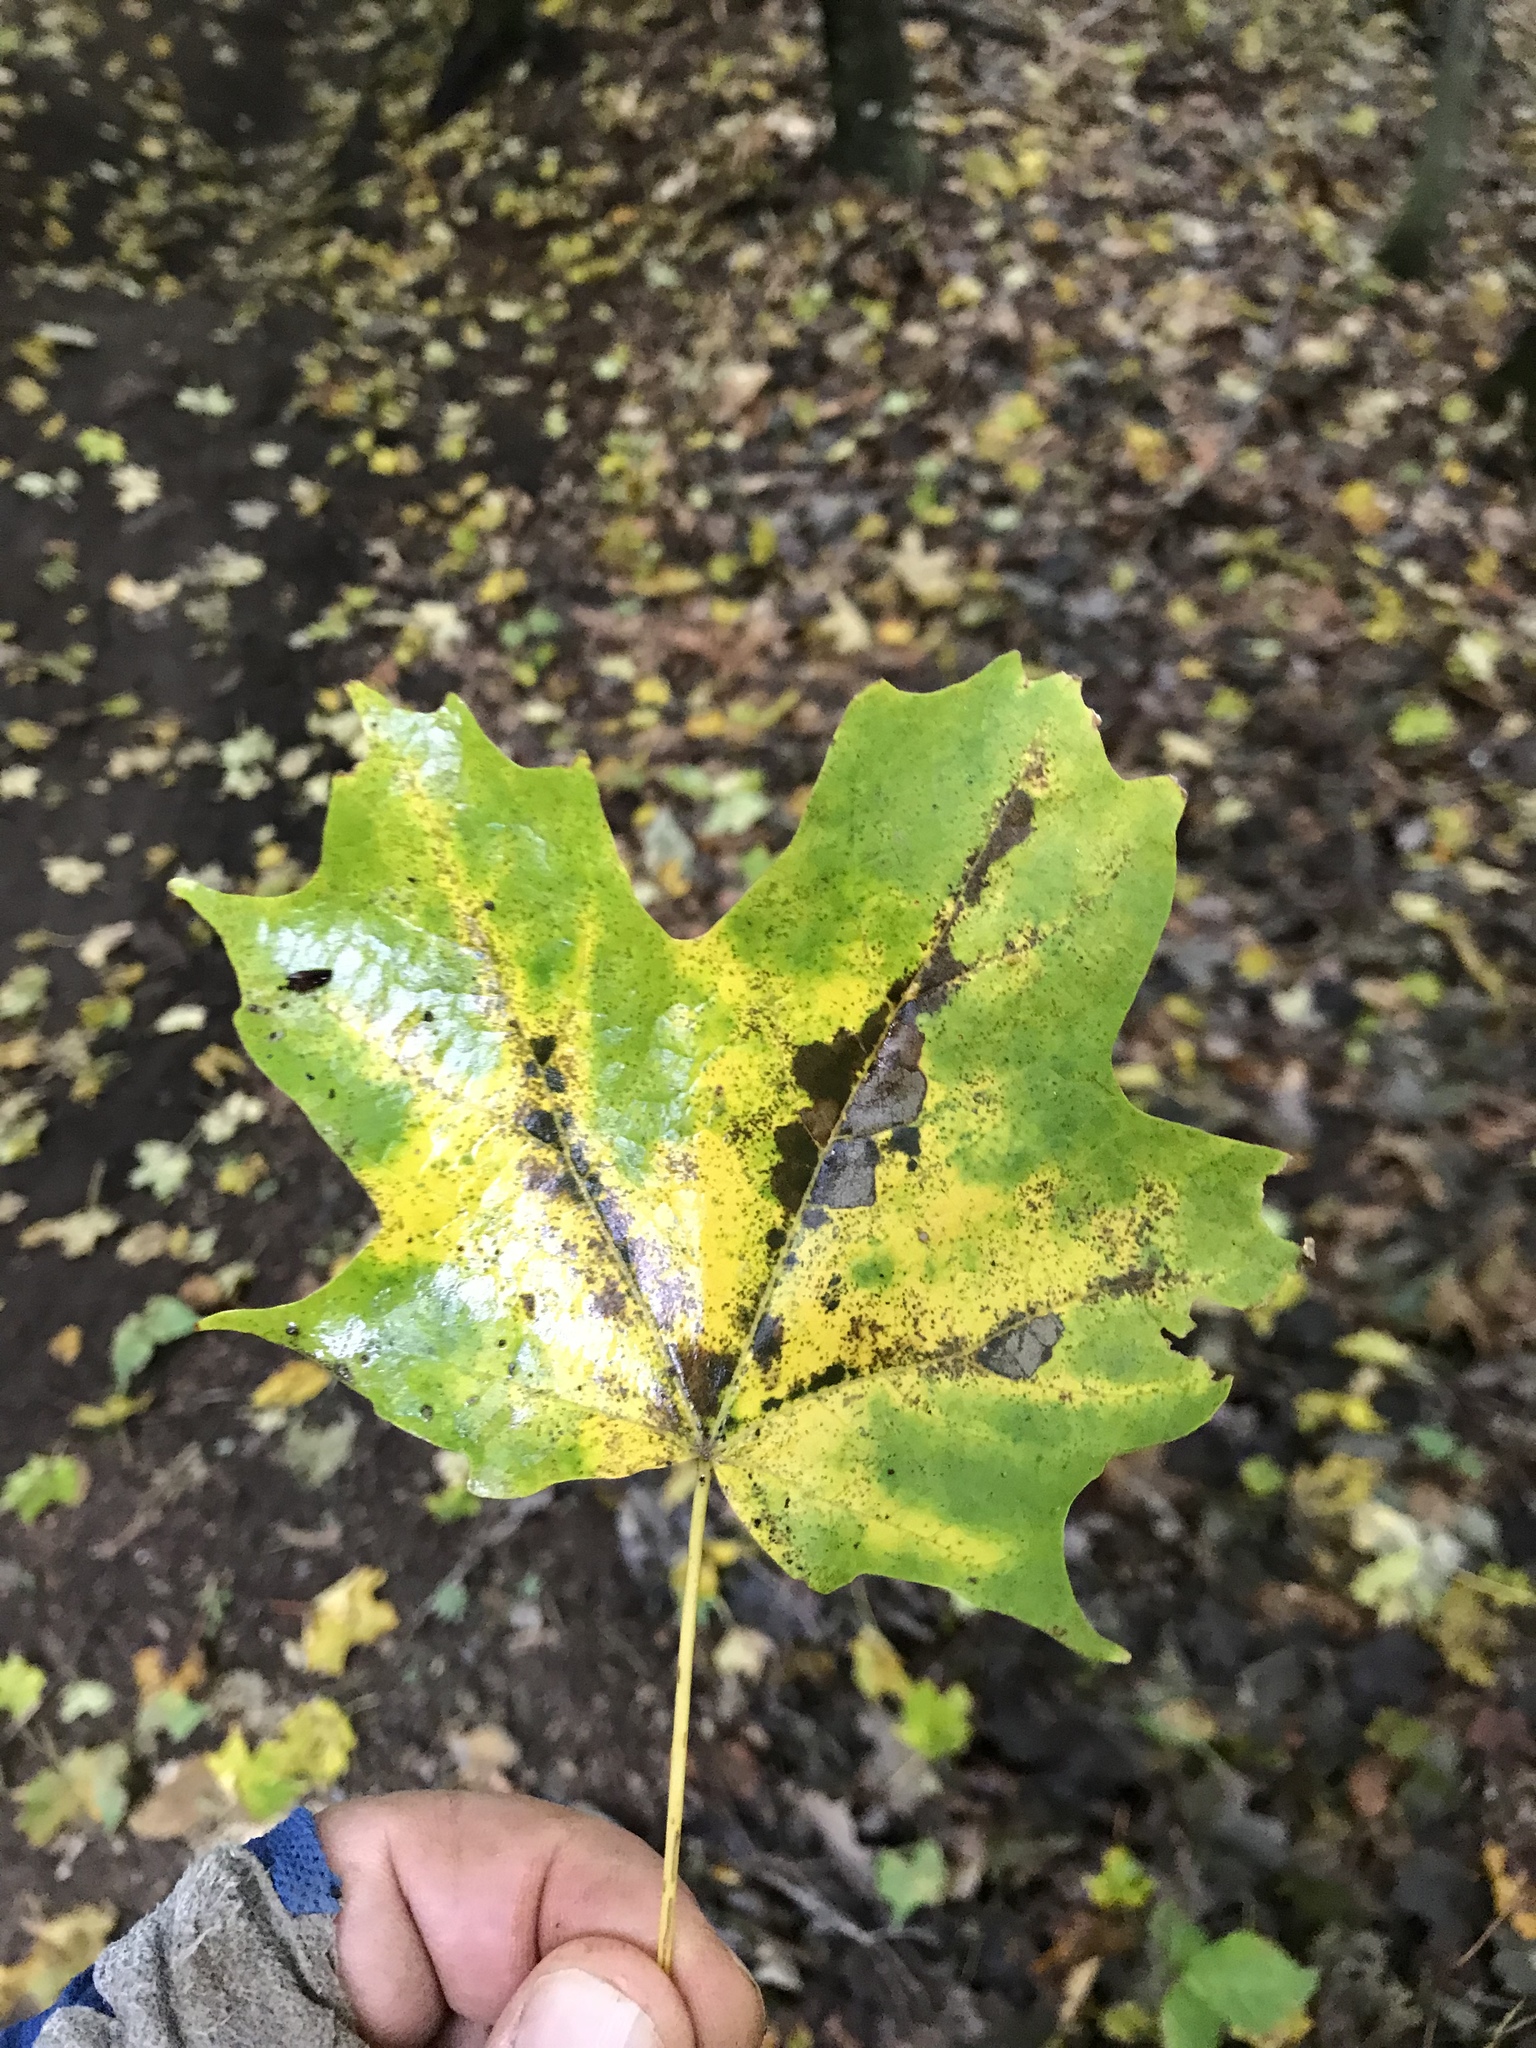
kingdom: Plantae
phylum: Tracheophyta
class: Magnoliopsida
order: Sapindales
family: Sapindaceae
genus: Acer
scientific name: Acer saccharum
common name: Sugar maple
